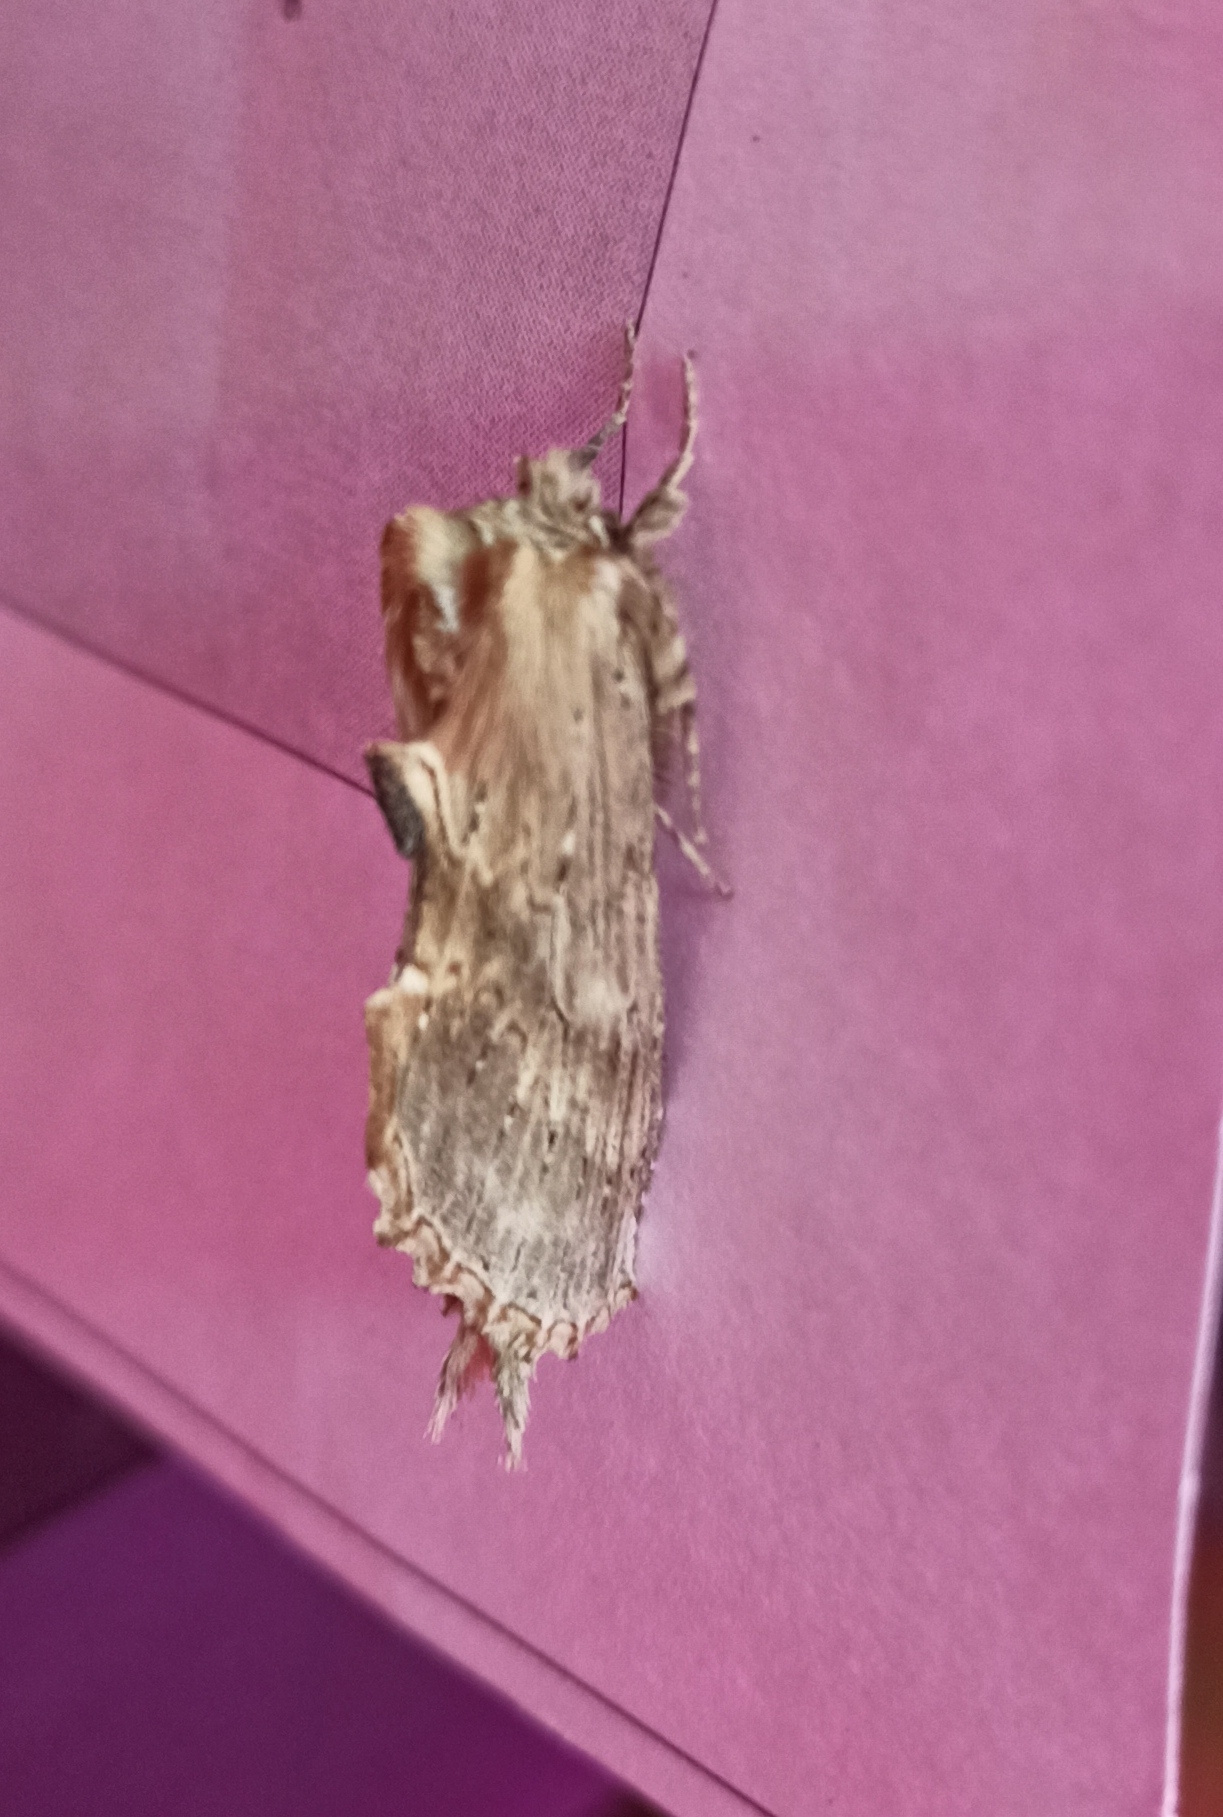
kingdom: Animalia
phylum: Arthropoda
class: Insecta
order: Lepidoptera
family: Notodontidae
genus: Pterostoma
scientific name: Pterostoma palpina
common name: Pale prominent
